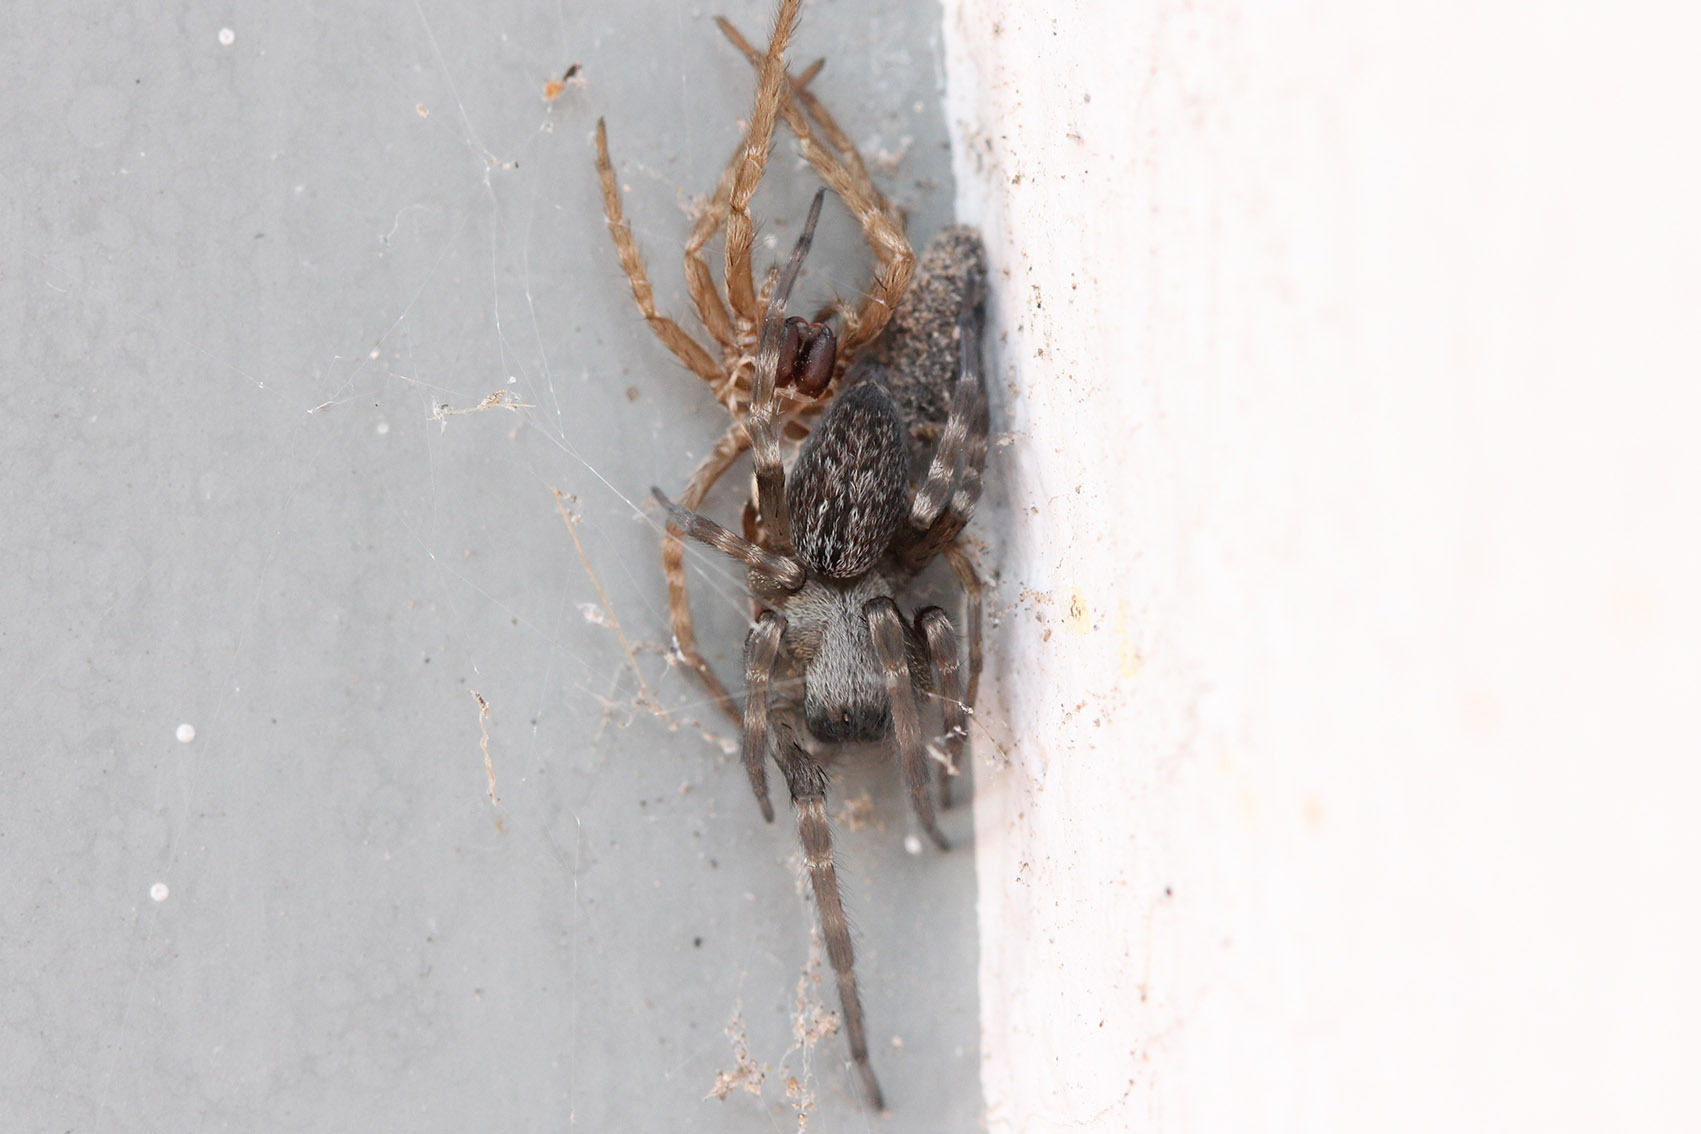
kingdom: Animalia
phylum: Arthropoda
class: Arachnida
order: Araneae
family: Desidae
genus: Badumna
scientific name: Badumna longinqua
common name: Gray house spider
